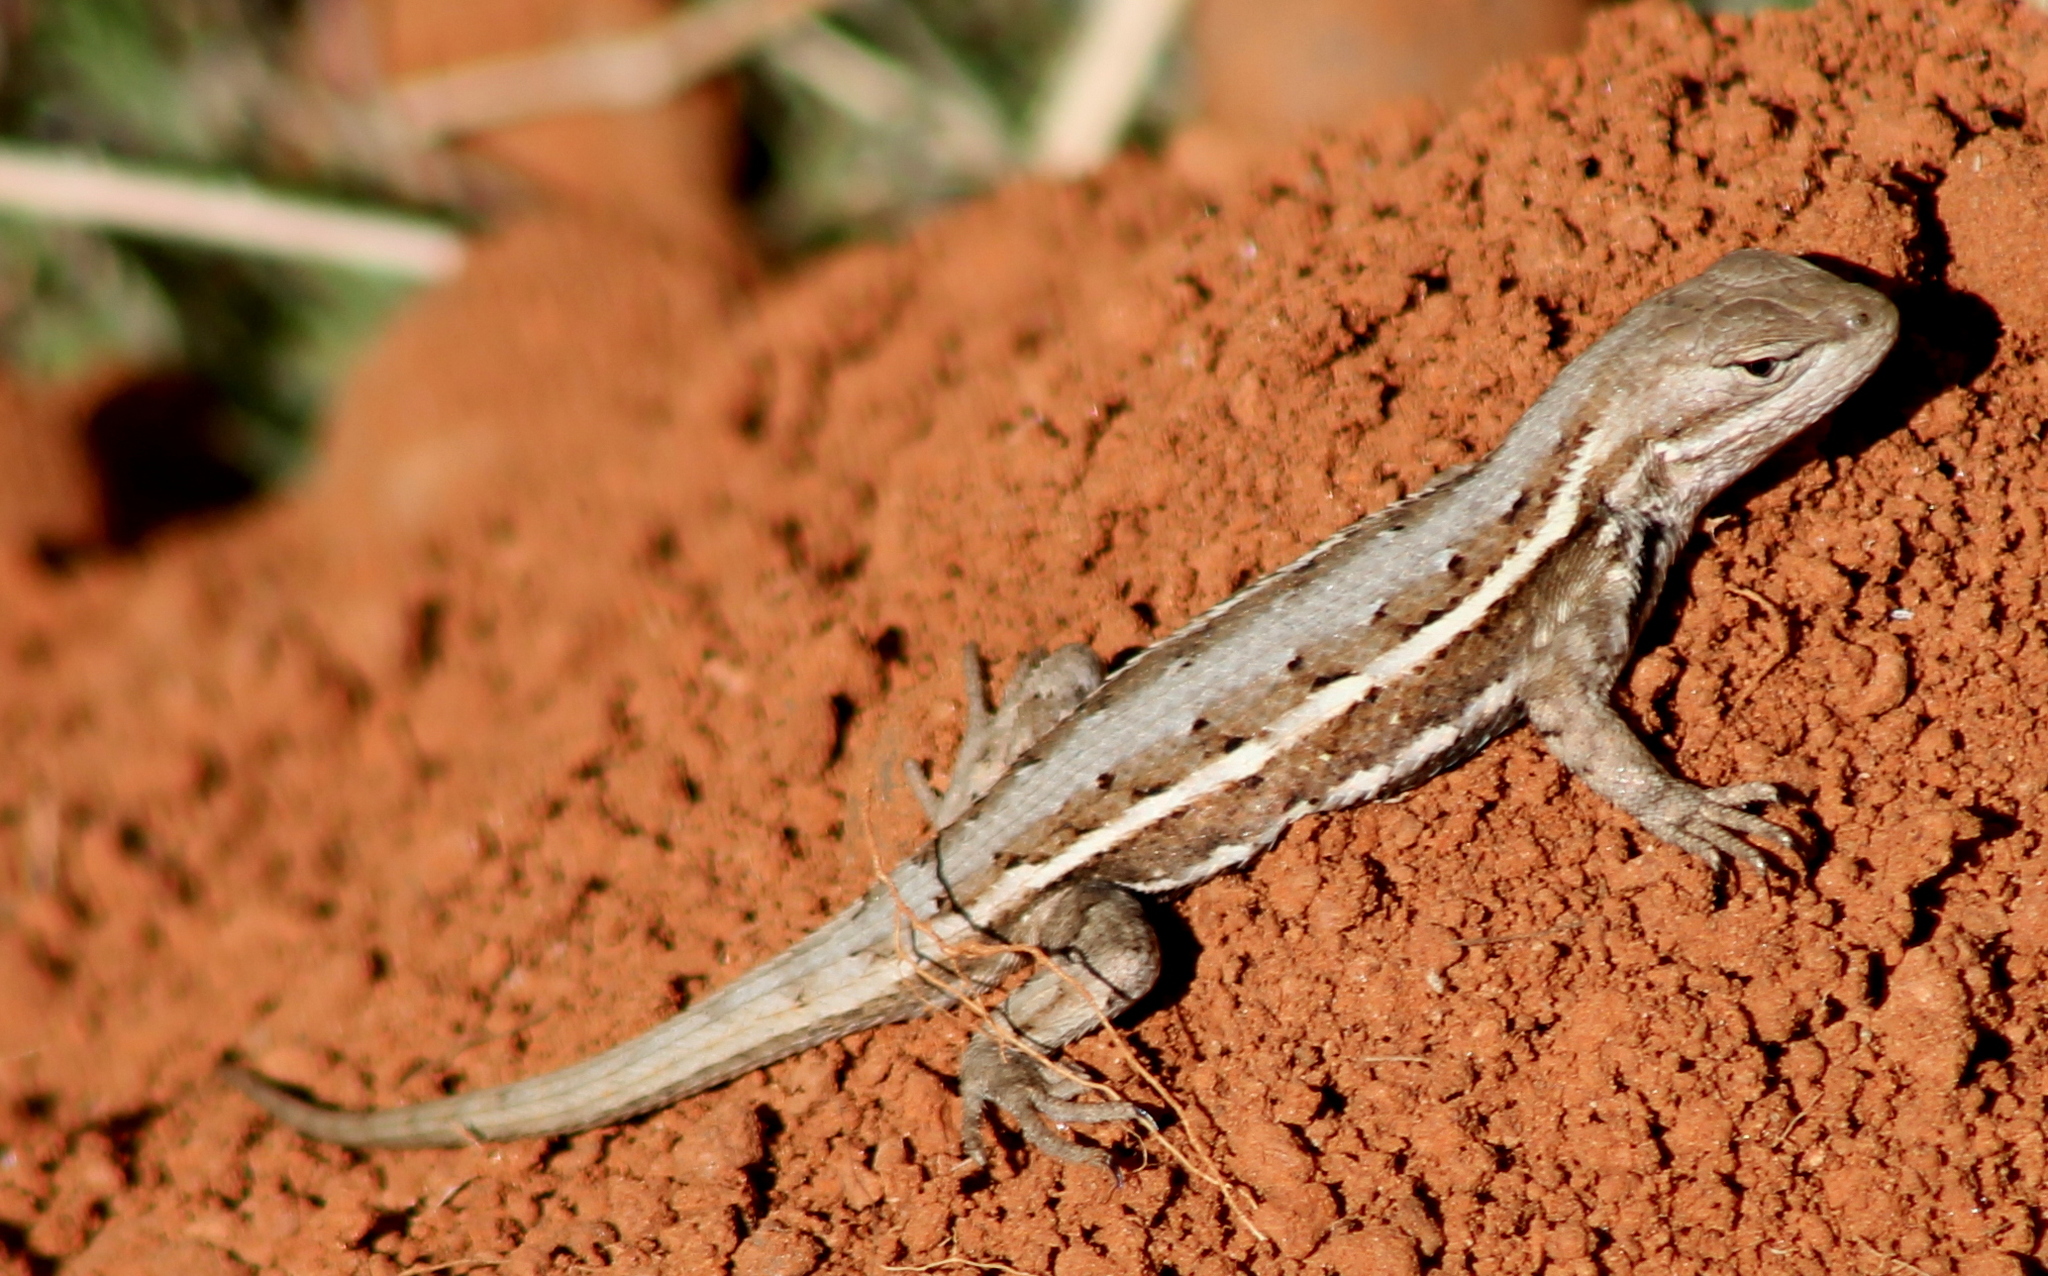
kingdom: Animalia
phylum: Chordata
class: Squamata
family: Phrynosomatidae
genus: Sceloporus
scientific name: Sceloporus consobrinus
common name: Southern prairie lizard
